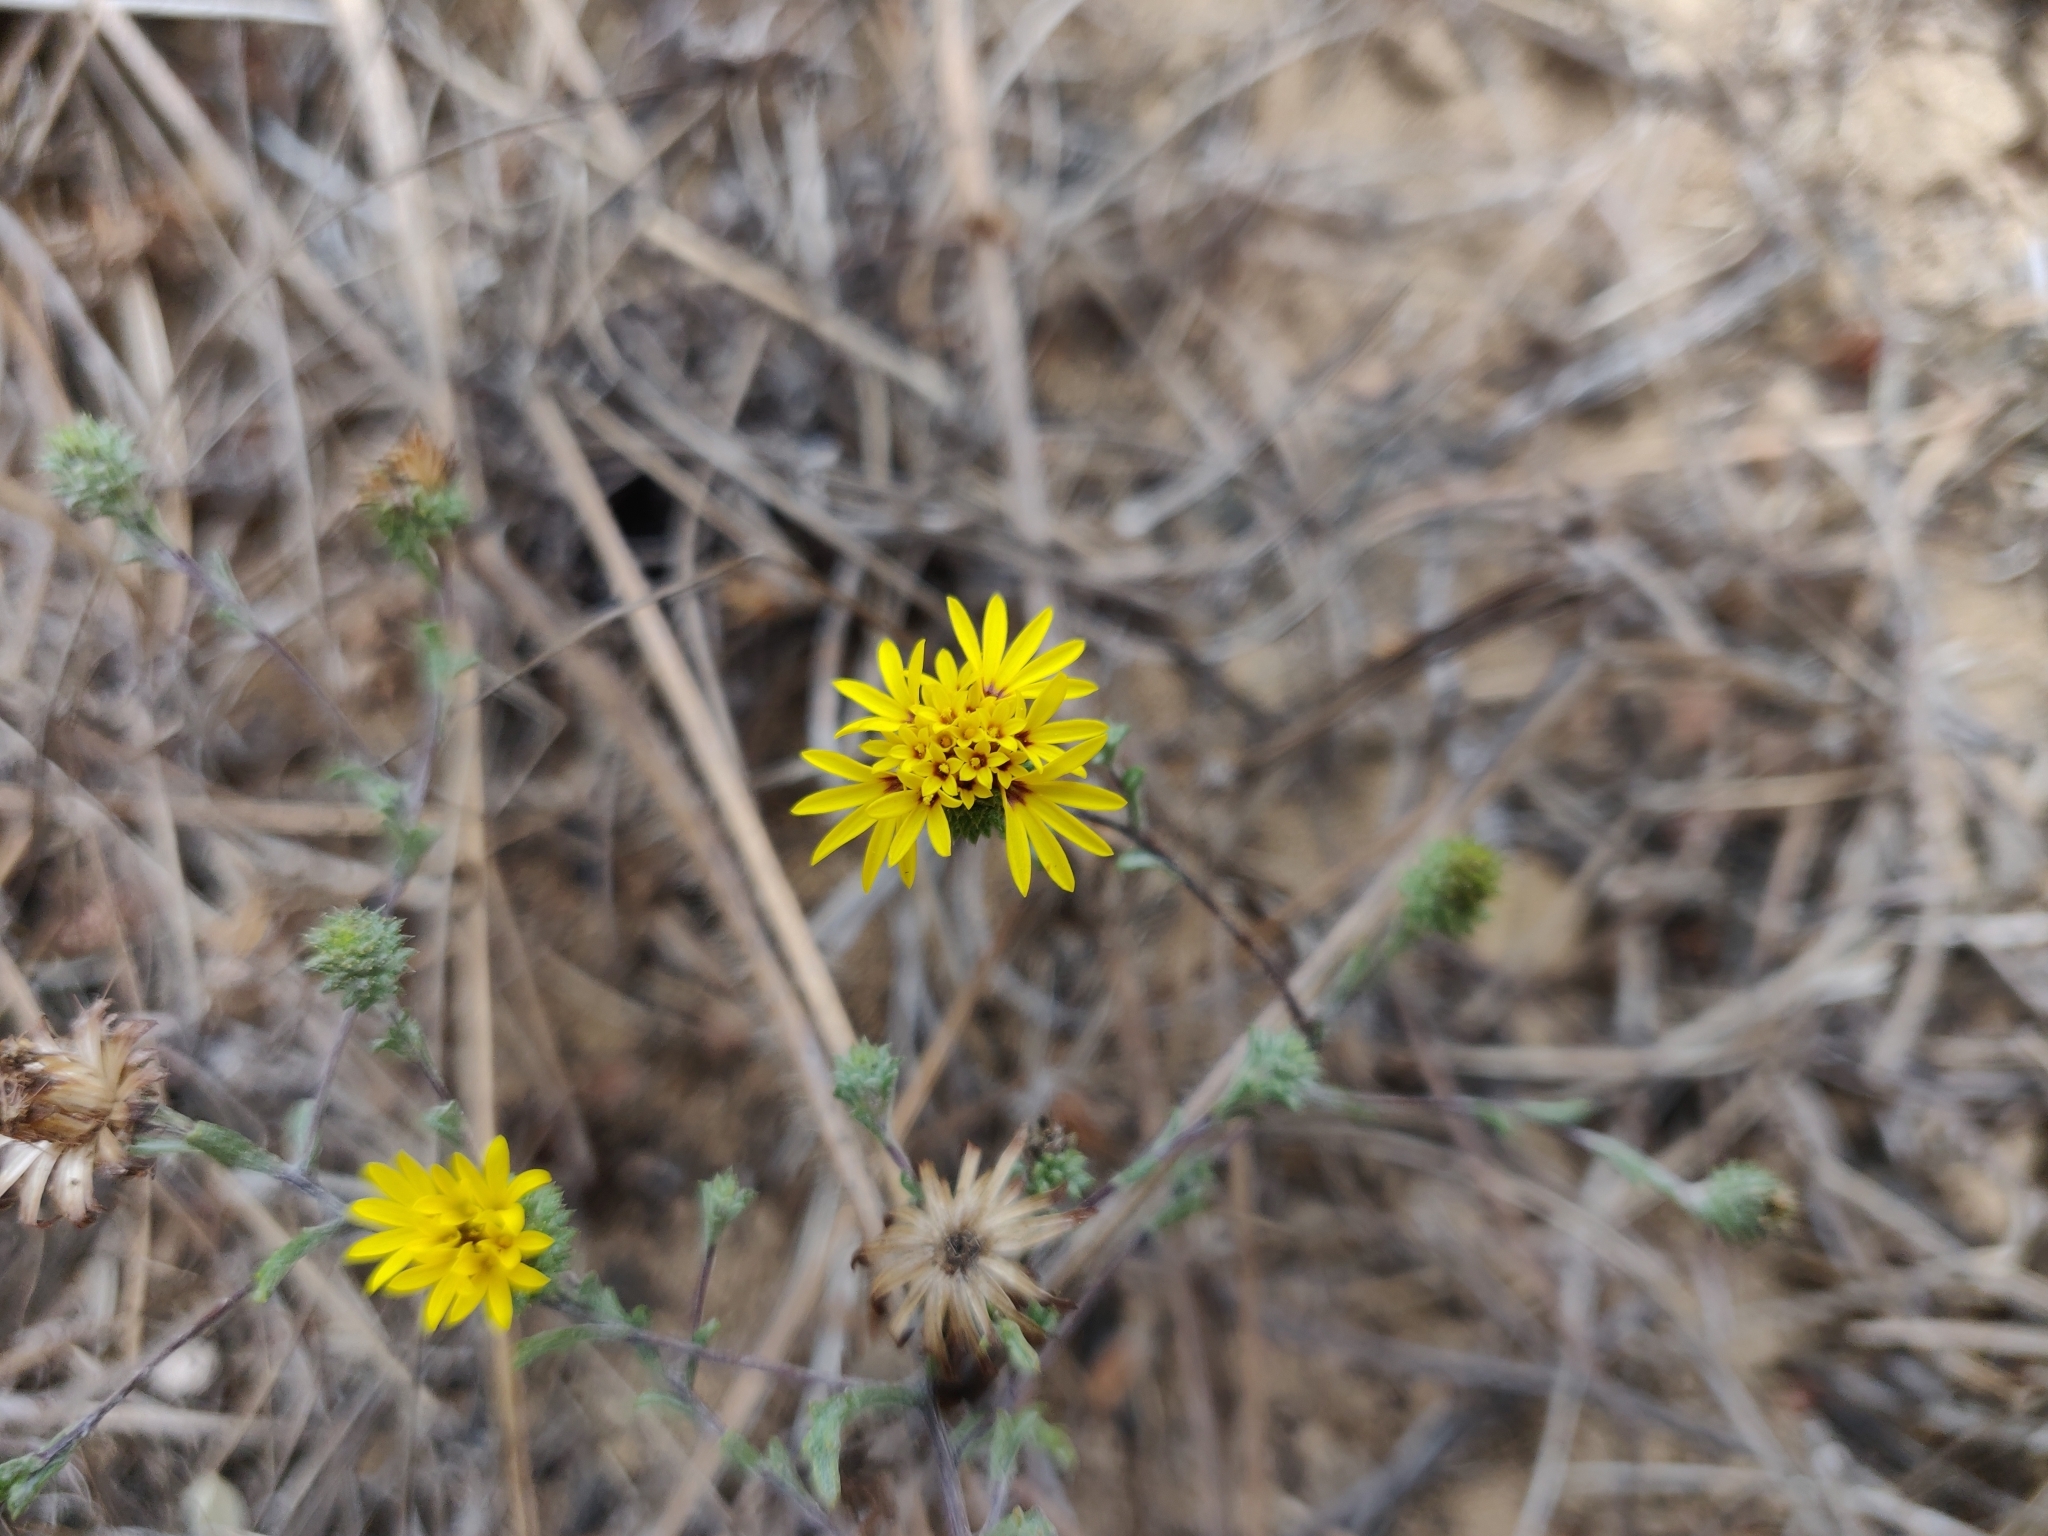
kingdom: Plantae
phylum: Tracheophyta
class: Magnoliopsida
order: Asterales
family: Asteraceae
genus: Lessingia
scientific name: Lessingia germanorum
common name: San francisco lessingia
